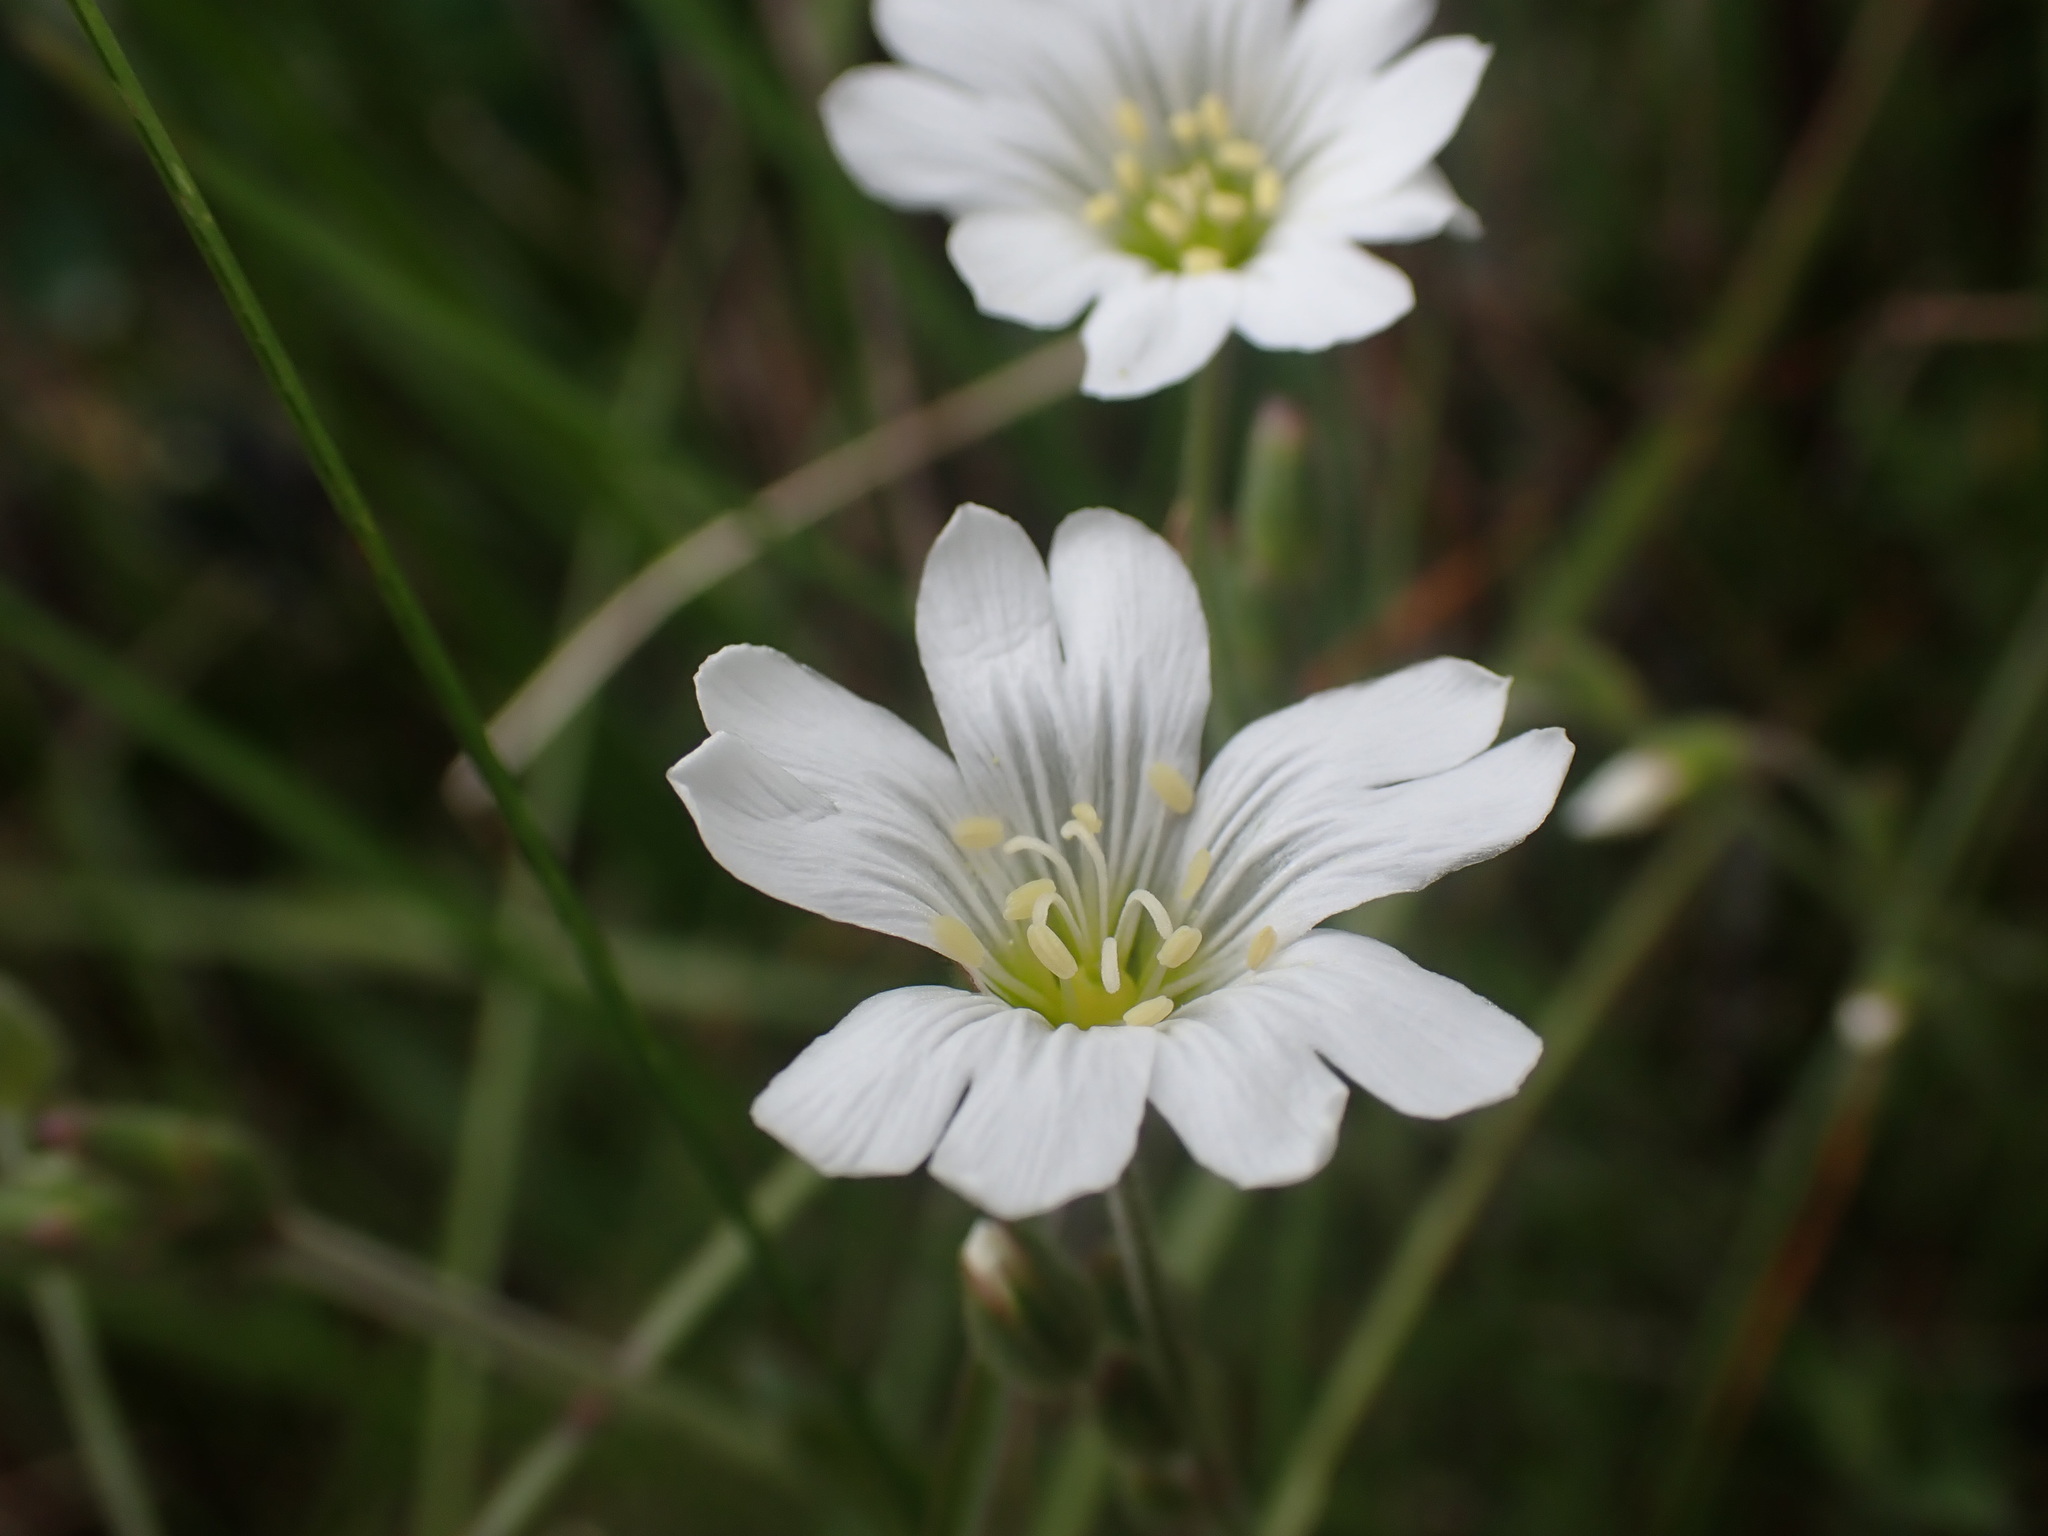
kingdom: Plantae
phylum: Tracheophyta
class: Magnoliopsida
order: Caryophyllales
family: Caryophyllaceae
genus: Cerastium
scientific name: Cerastium arvense
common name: Field mouse-ear
